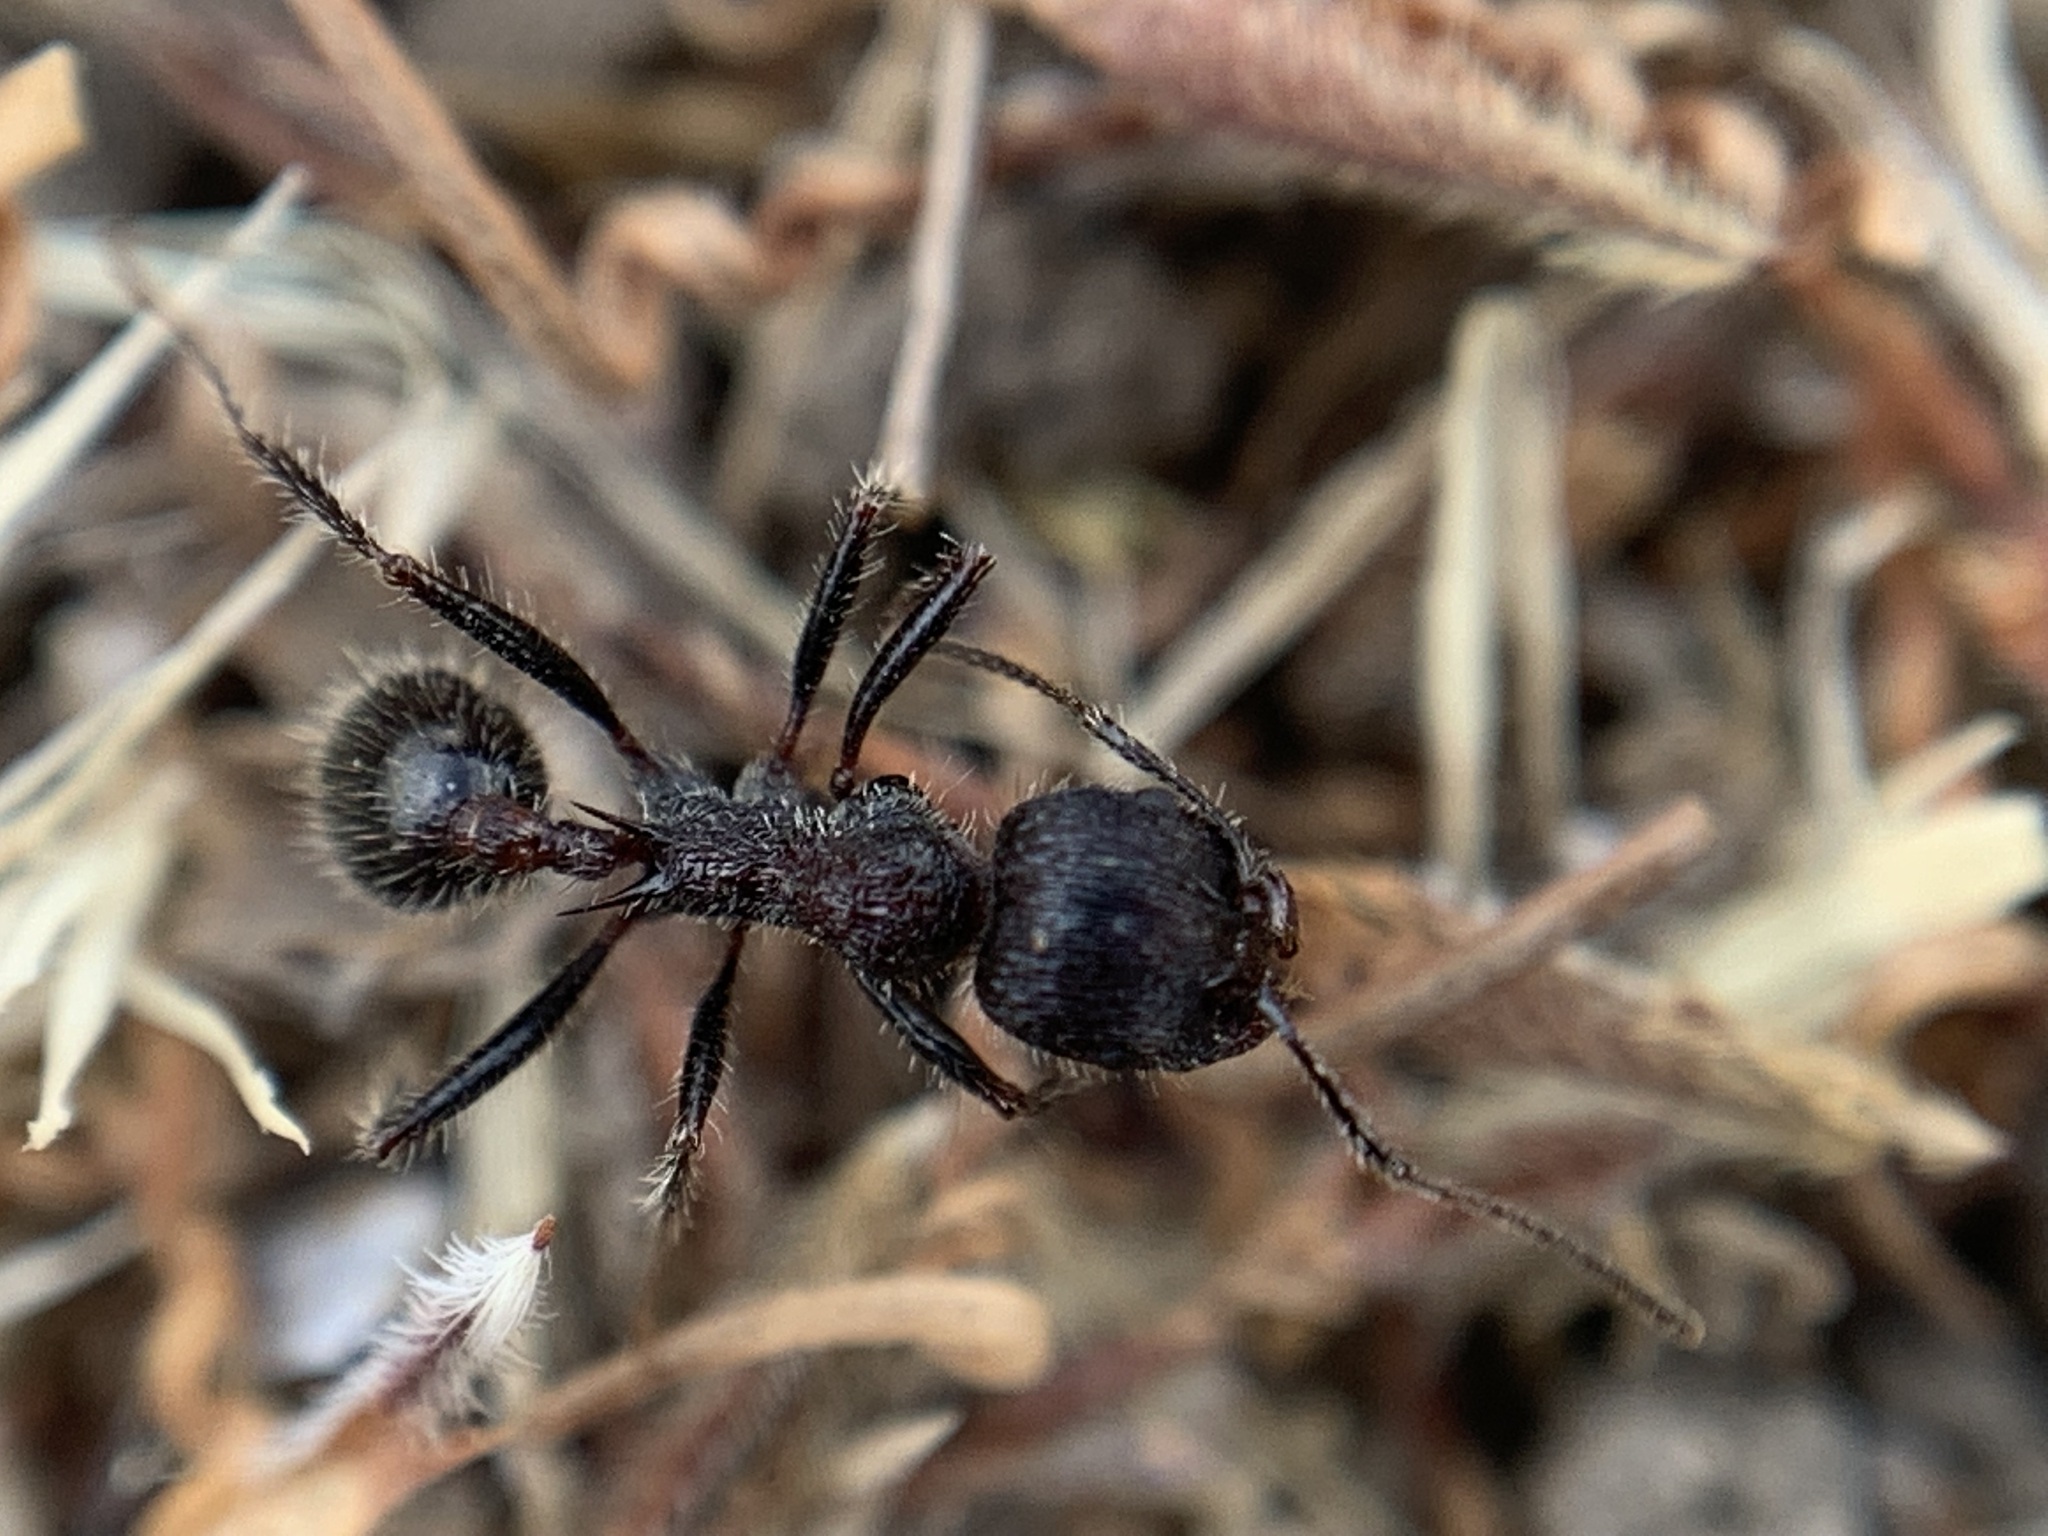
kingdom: Animalia
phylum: Arthropoda
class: Insecta
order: Hymenoptera
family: Formicidae
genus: Veromessor
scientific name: Veromessor andrei
